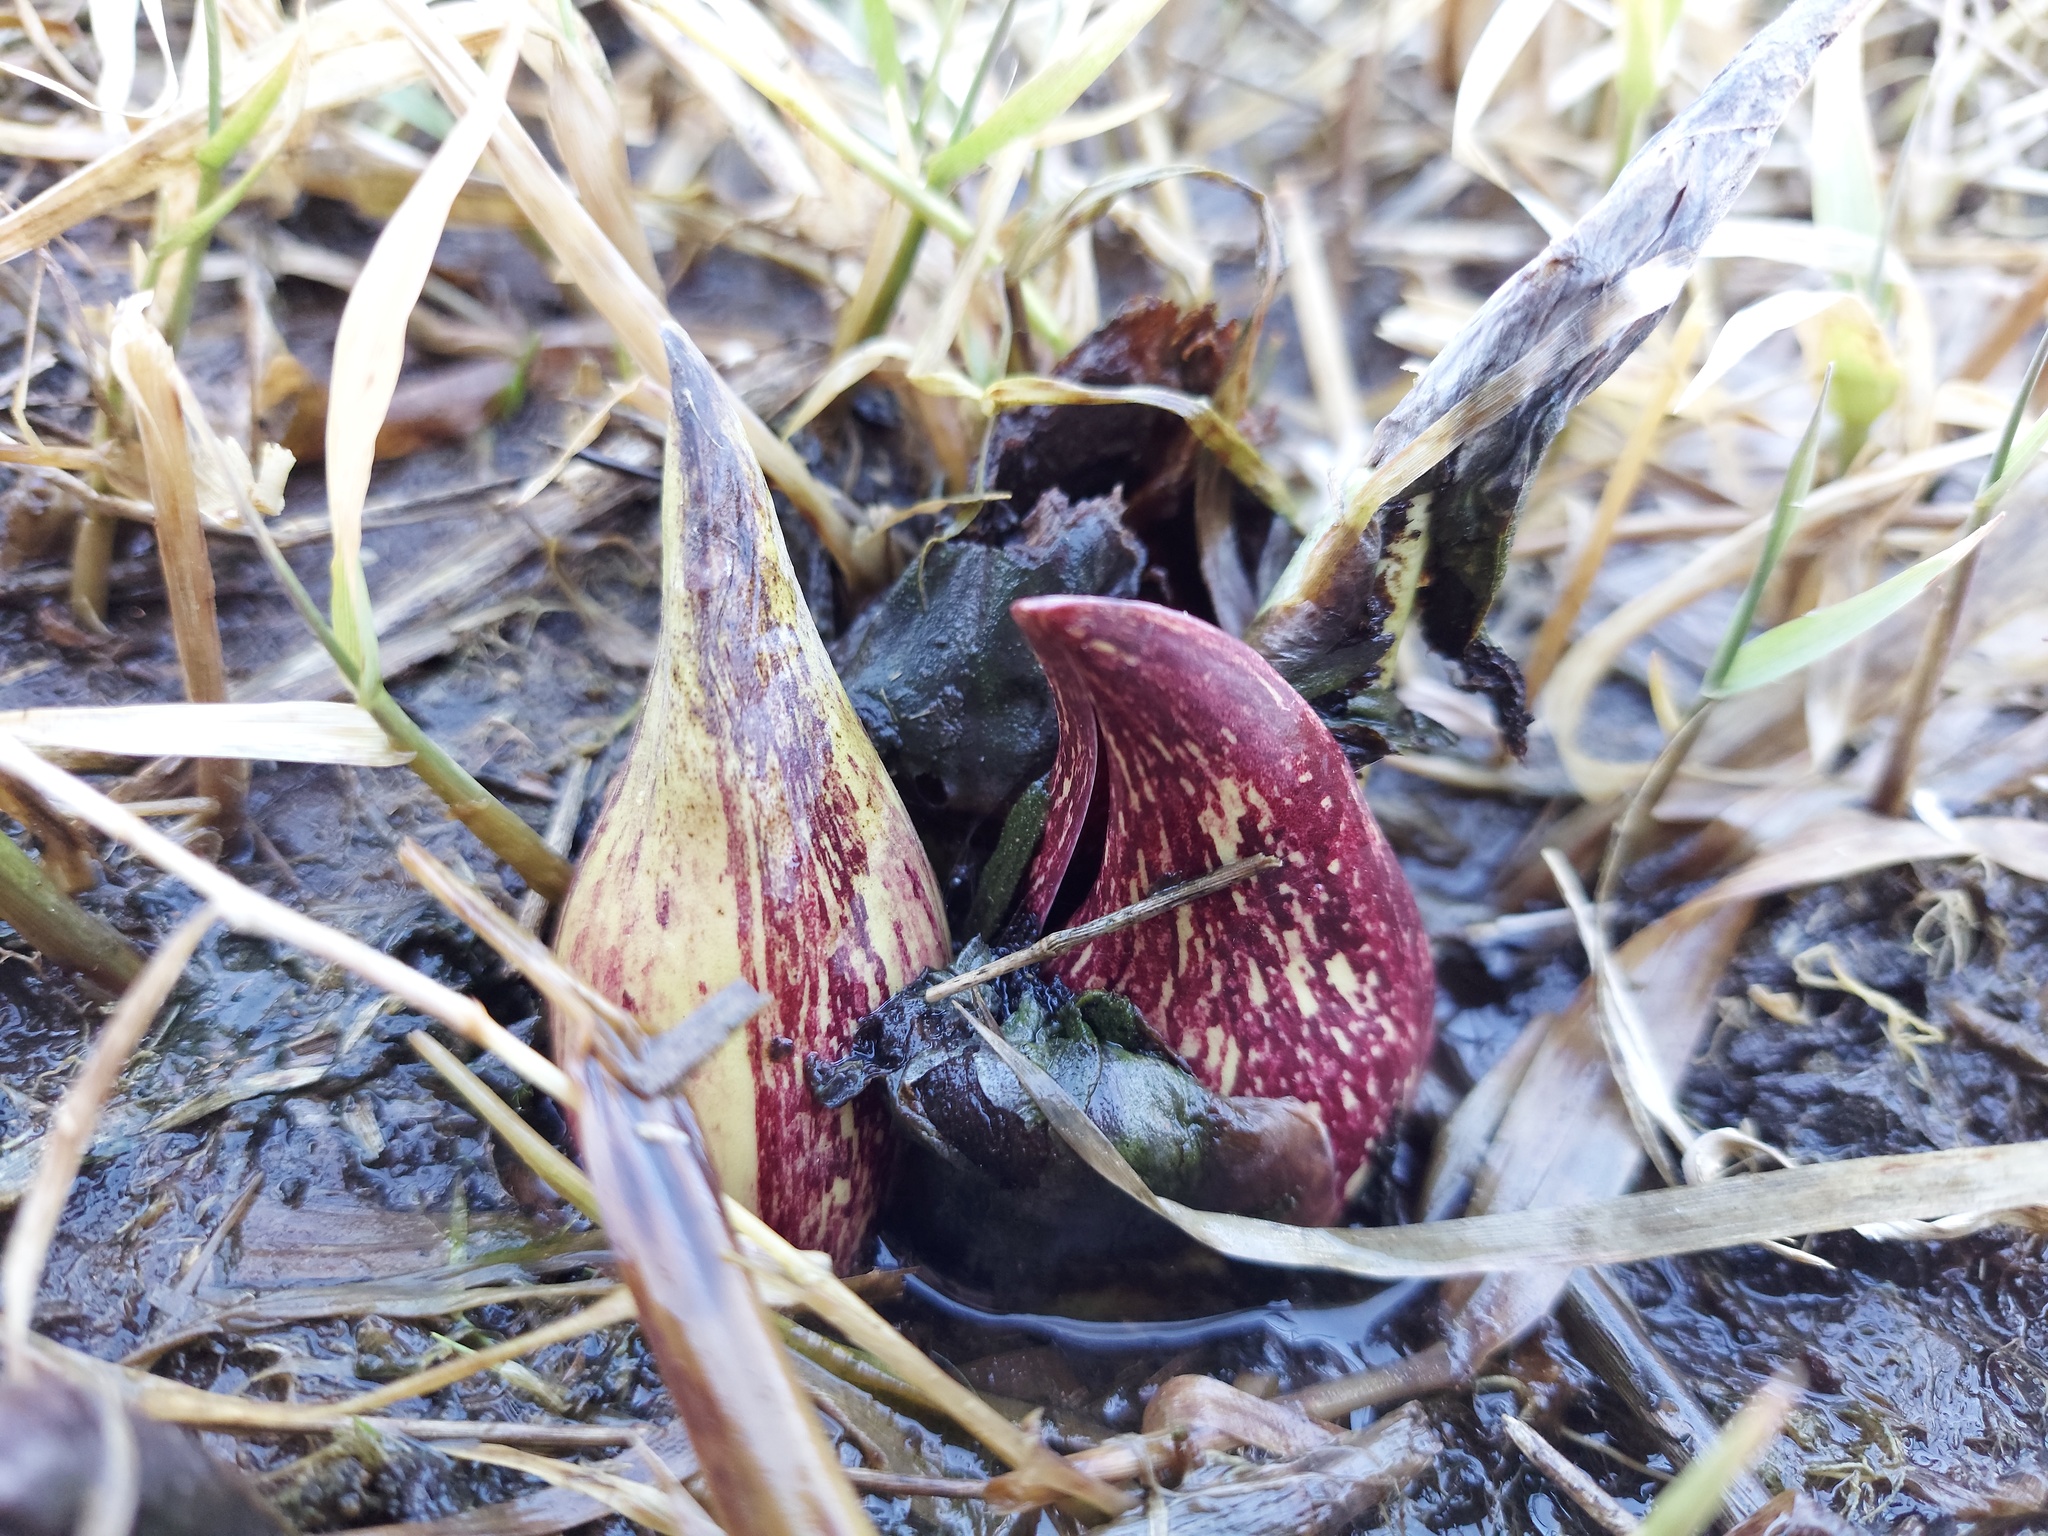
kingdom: Plantae
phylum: Tracheophyta
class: Liliopsida
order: Alismatales
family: Araceae
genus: Symplocarpus
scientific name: Symplocarpus foetidus
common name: Eastern skunk cabbage
